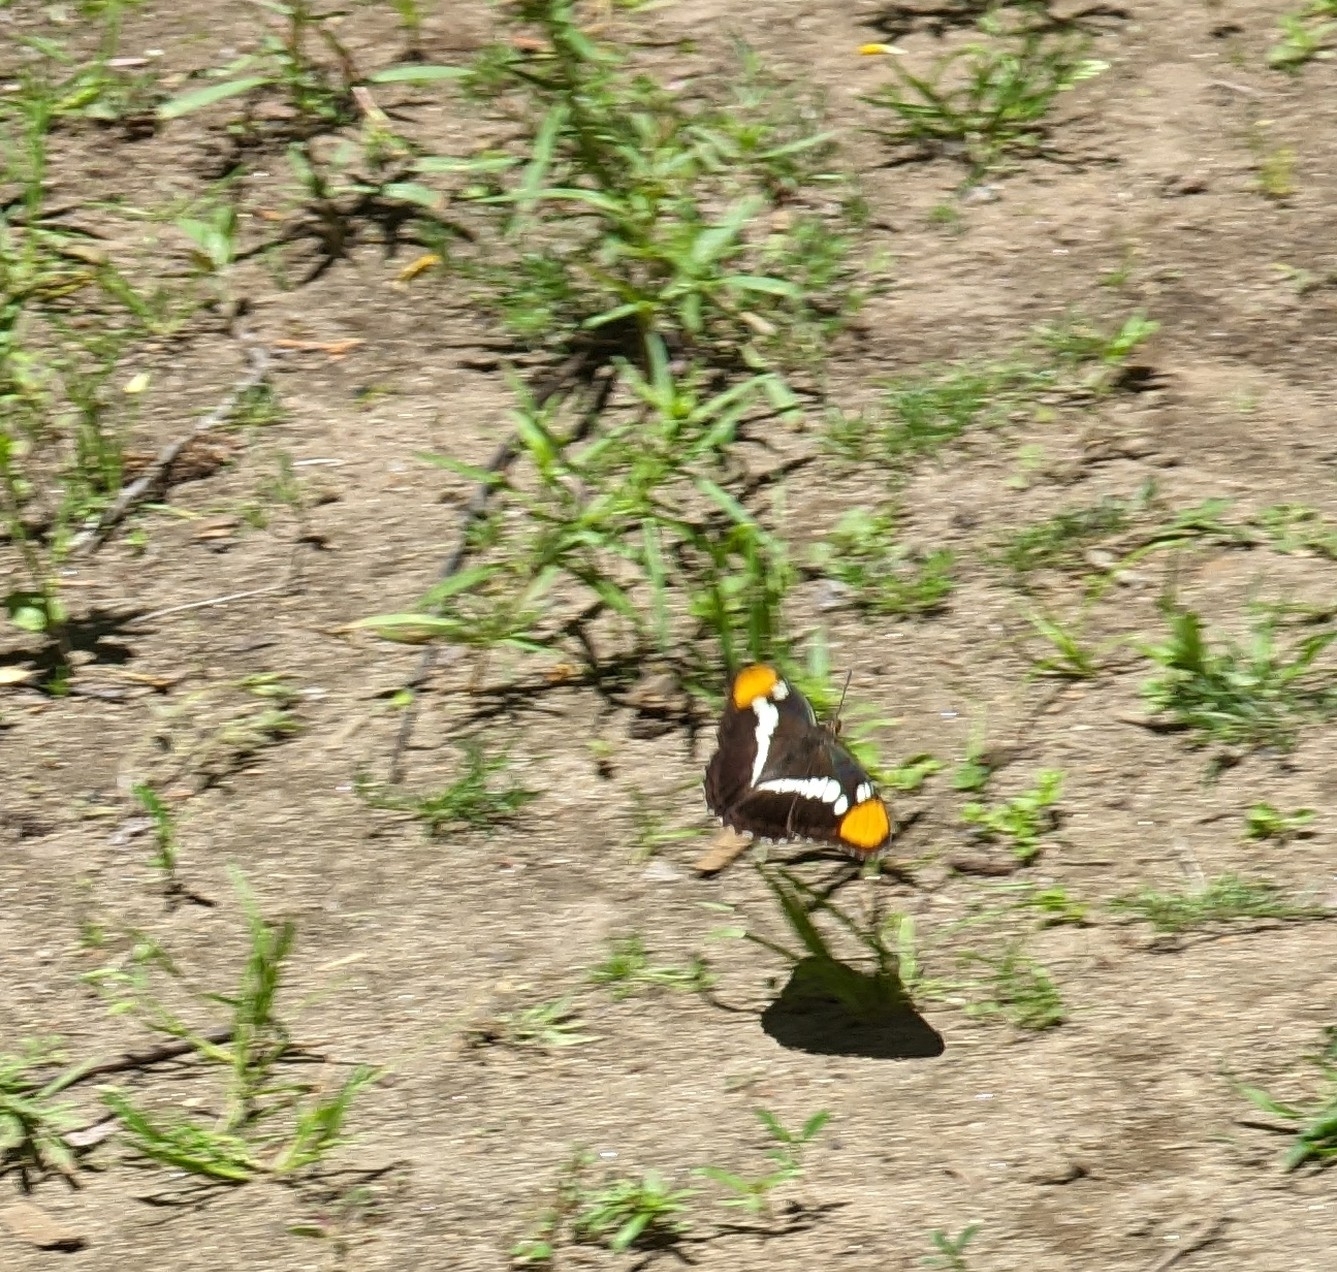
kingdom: Animalia
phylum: Arthropoda
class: Insecta
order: Lepidoptera
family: Nymphalidae
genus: Limenitis
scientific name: Limenitis bredowii
